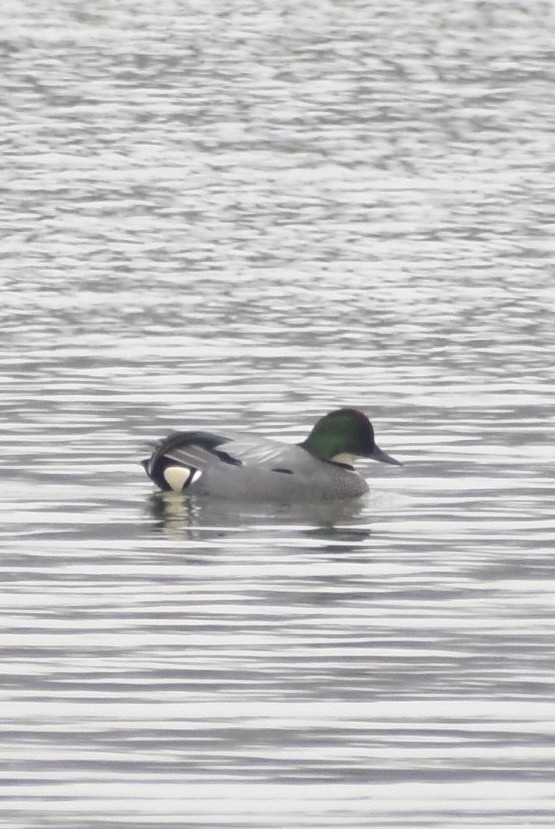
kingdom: Animalia
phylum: Chordata
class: Aves
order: Anseriformes
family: Anatidae
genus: Mareca
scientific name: Mareca falcata
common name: Falcated duck
